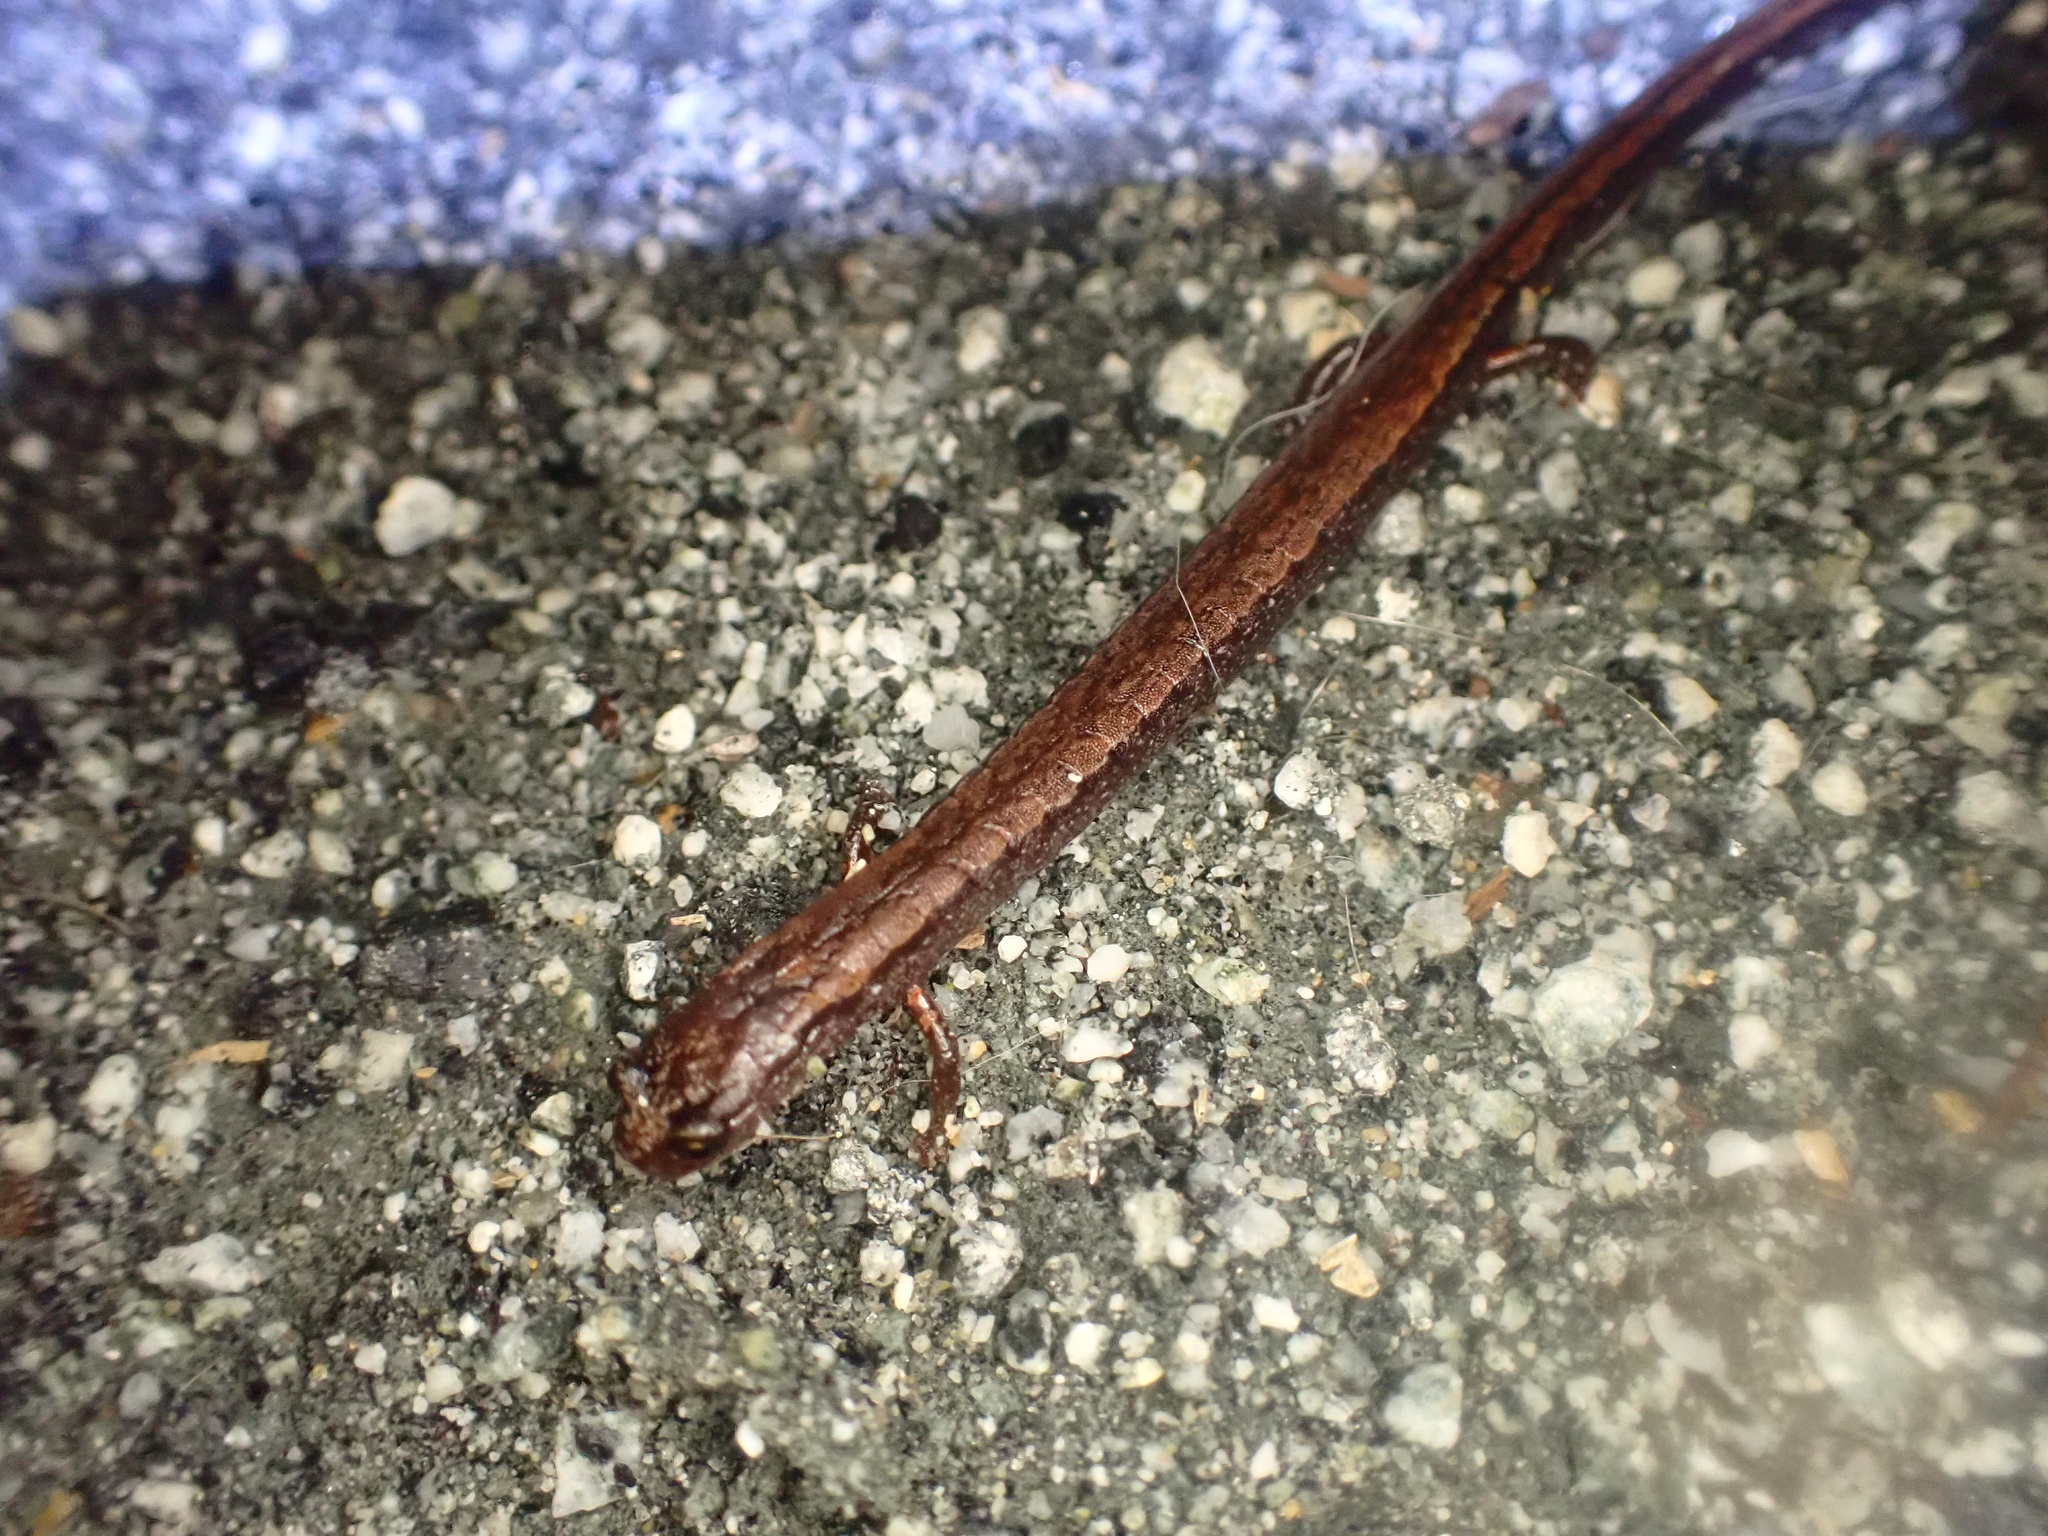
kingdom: Animalia
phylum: Chordata
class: Amphibia
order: Caudata
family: Plethodontidae
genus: Batrachoseps
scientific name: Batrachoseps attenuatus
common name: California slender salamander
